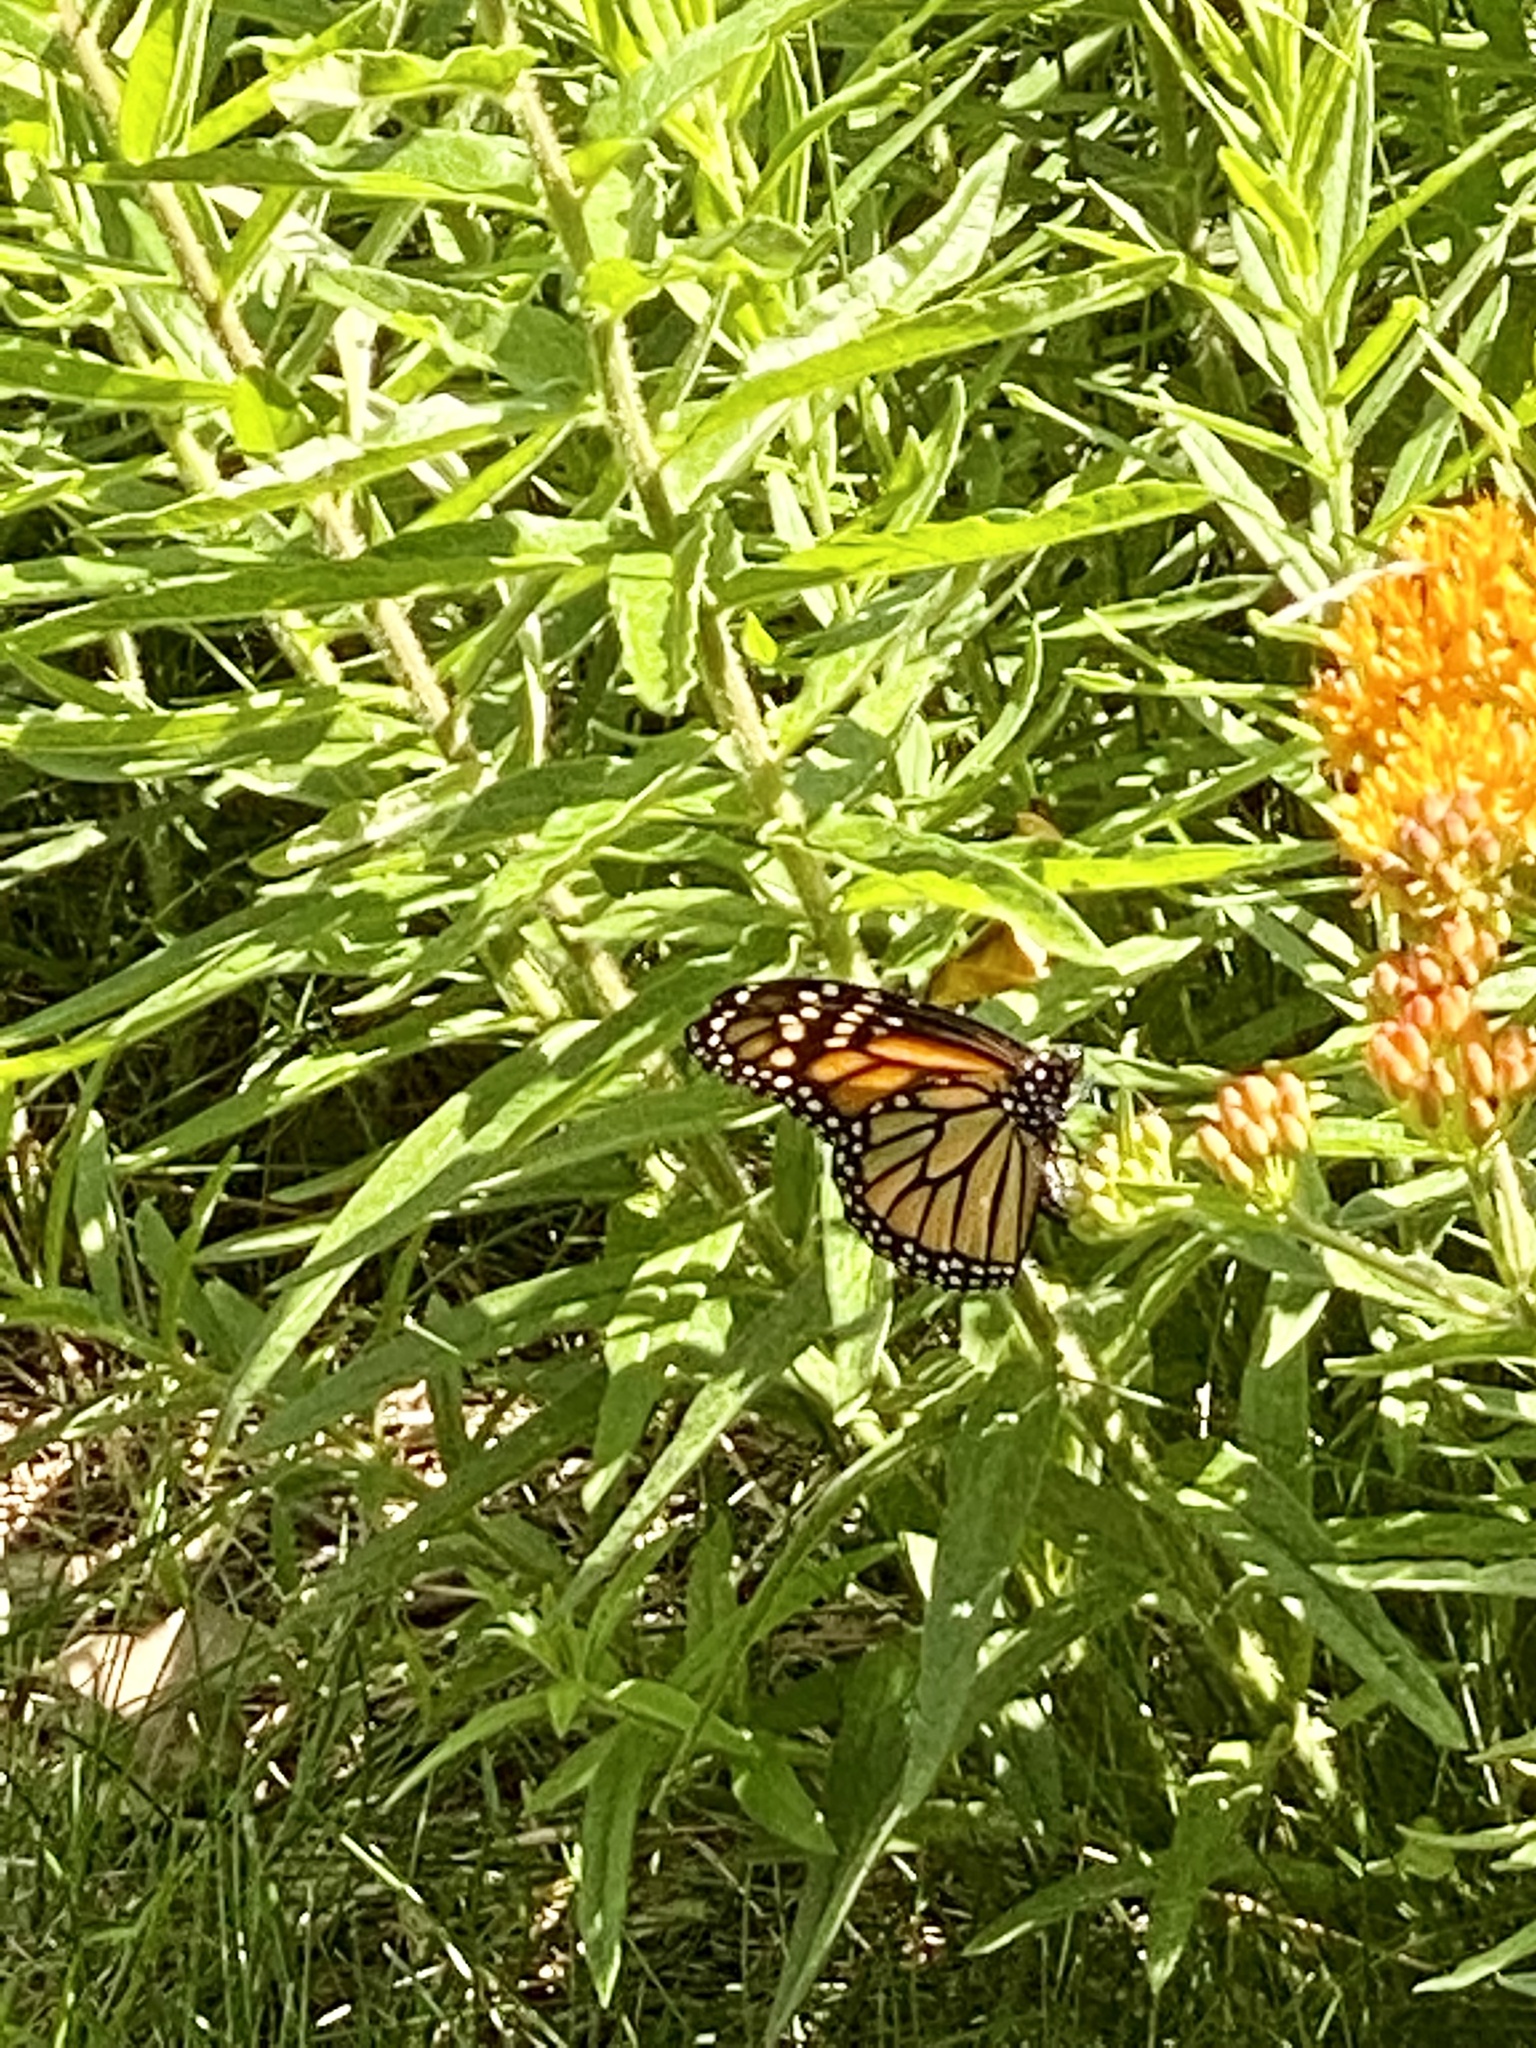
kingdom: Animalia
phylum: Arthropoda
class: Insecta
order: Lepidoptera
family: Nymphalidae
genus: Danaus
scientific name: Danaus plexippus
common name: Monarch
